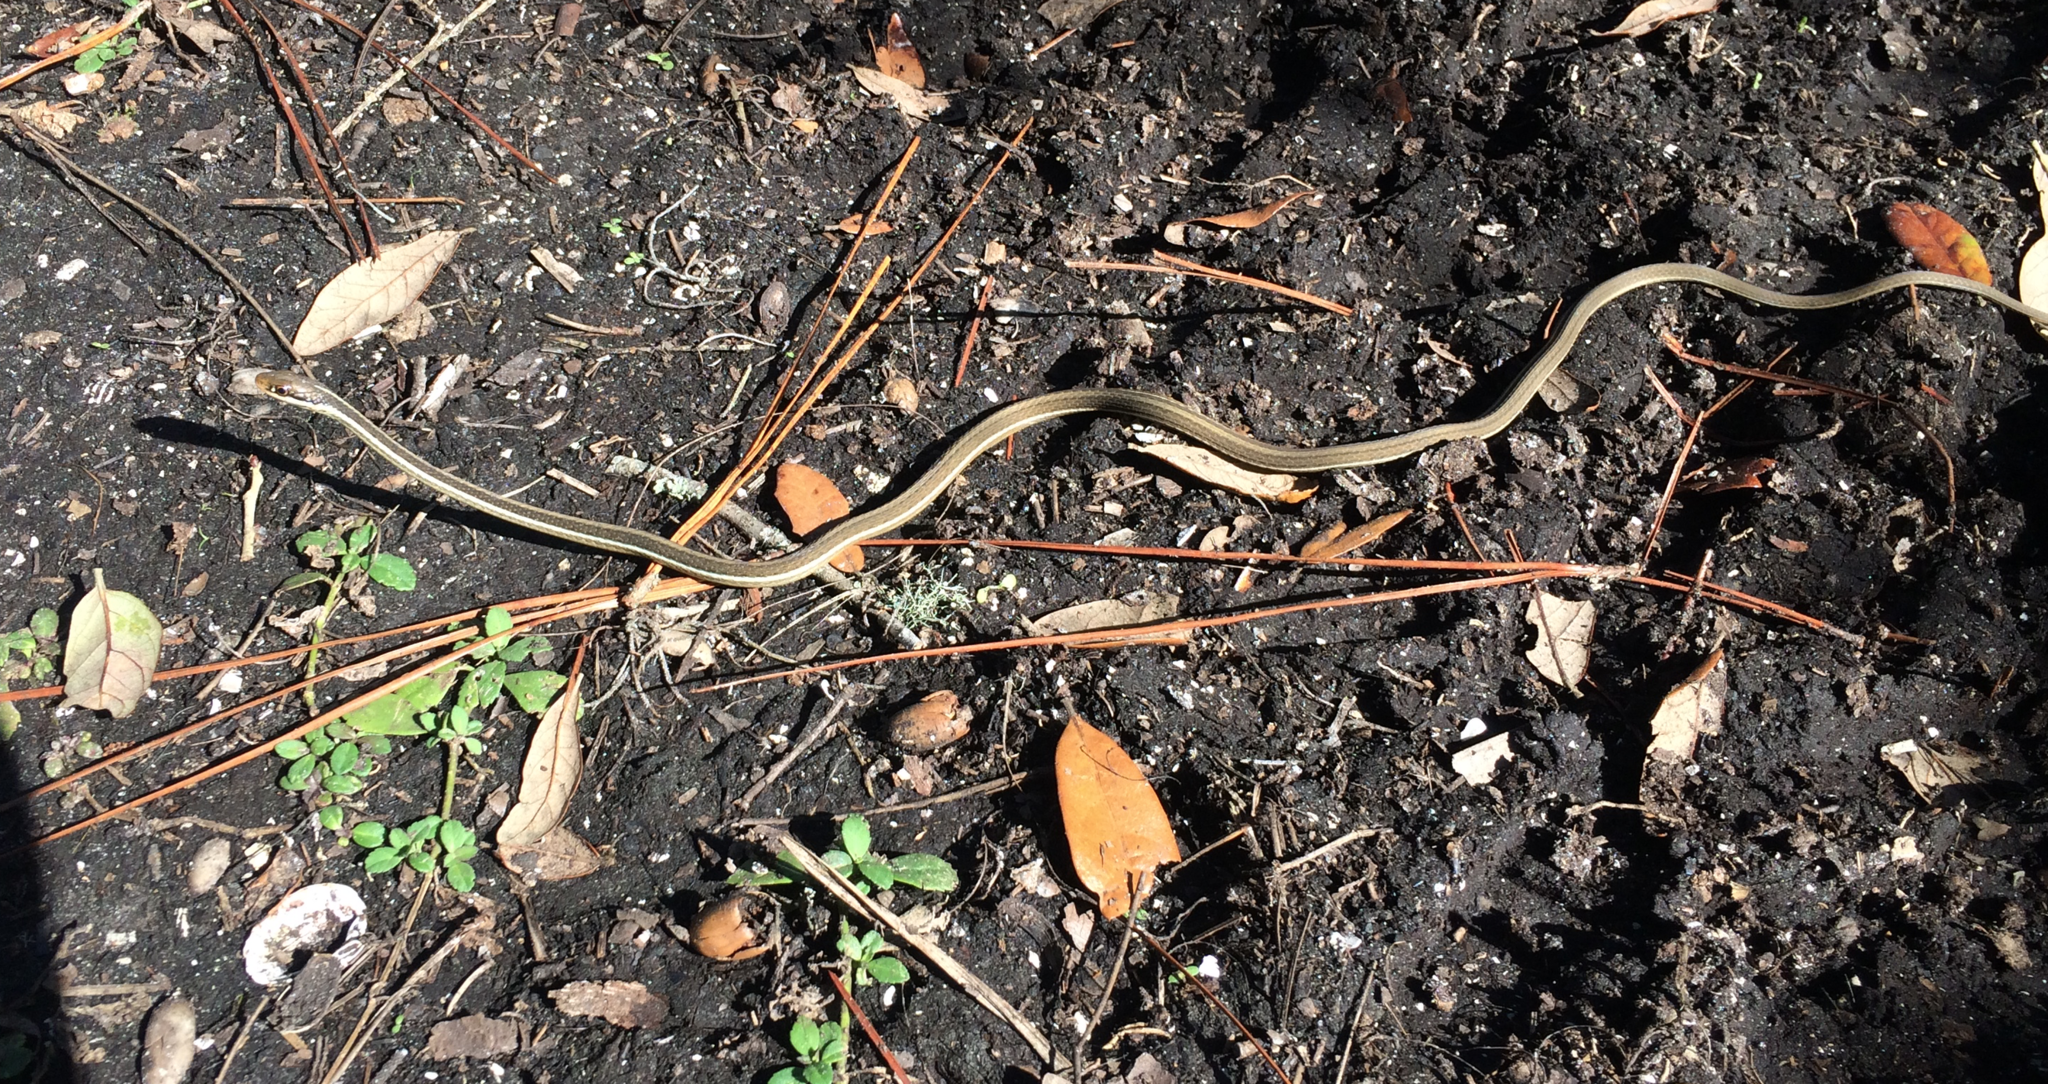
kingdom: Animalia
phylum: Chordata
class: Squamata
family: Colubridae
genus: Thamnophis
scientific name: Thamnophis saurita
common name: Eastern ribbonsnake
